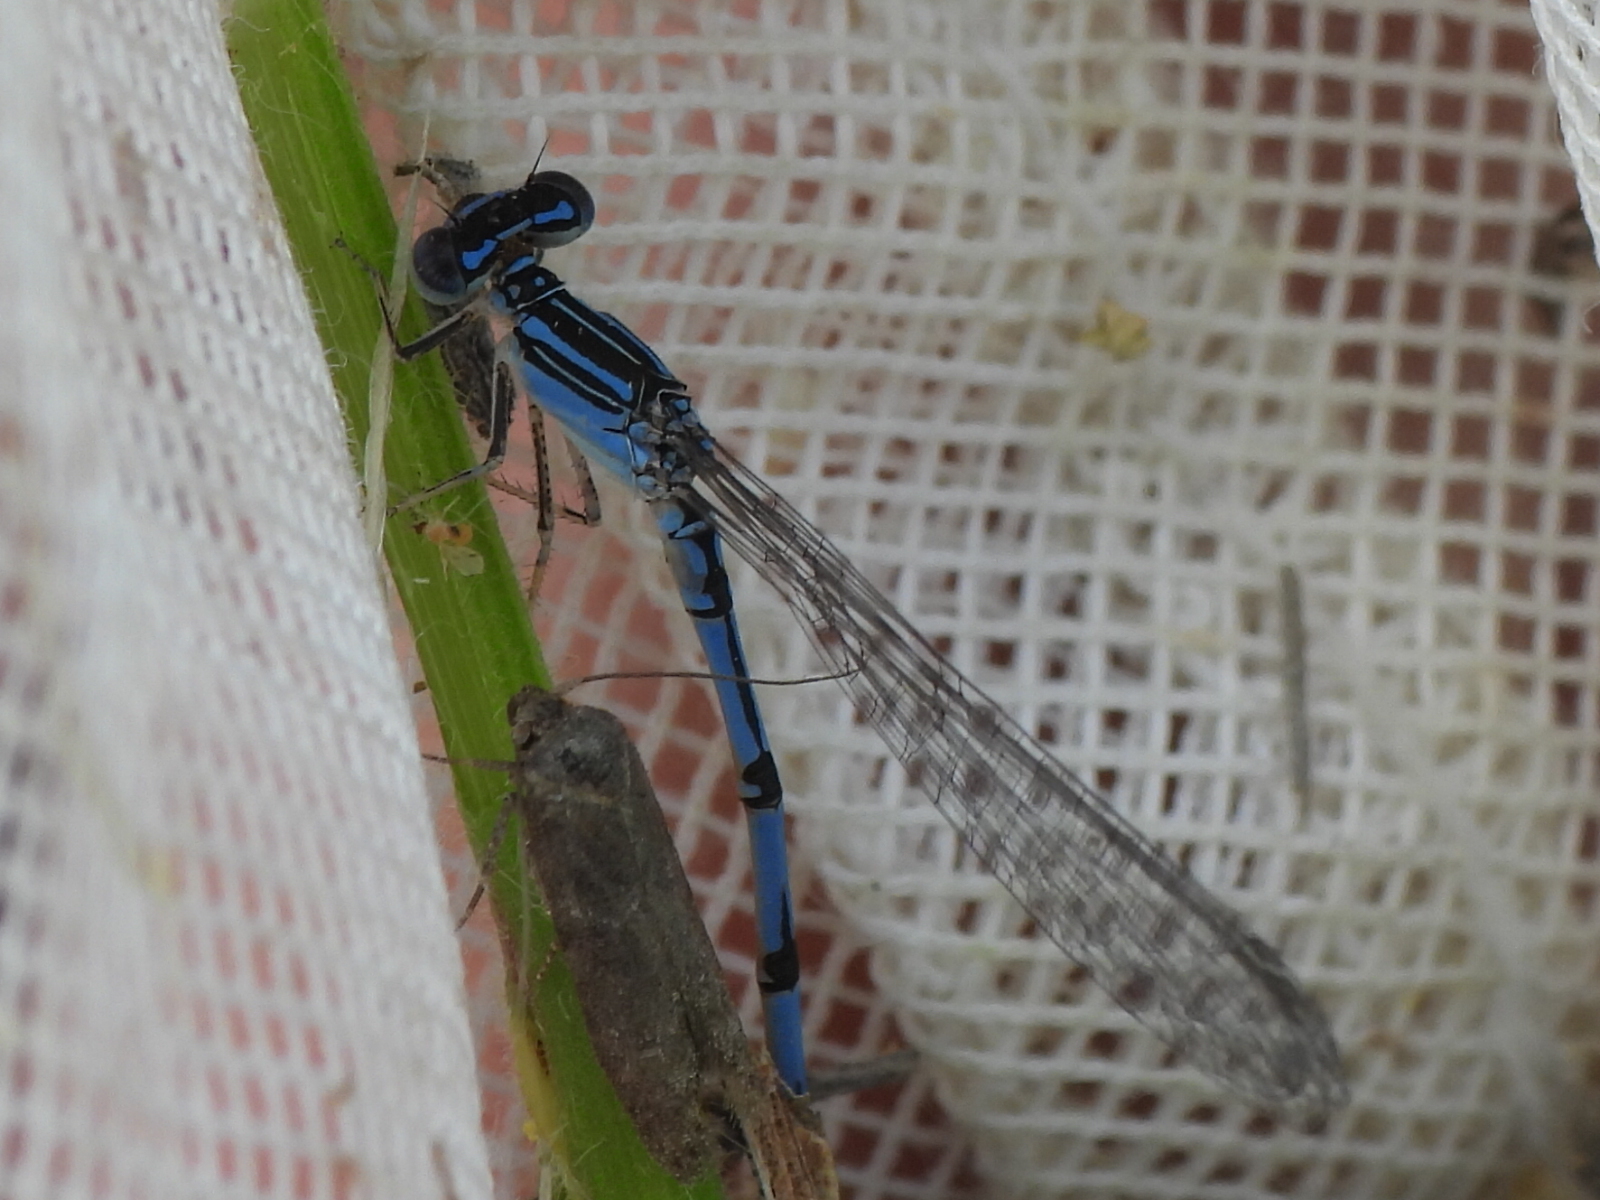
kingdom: Animalia
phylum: Arthropoda
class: Insecta
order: Odonata
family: Coenagrionidae
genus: Enallagma
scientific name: Enallagma basidens
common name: Double-striped bluet
